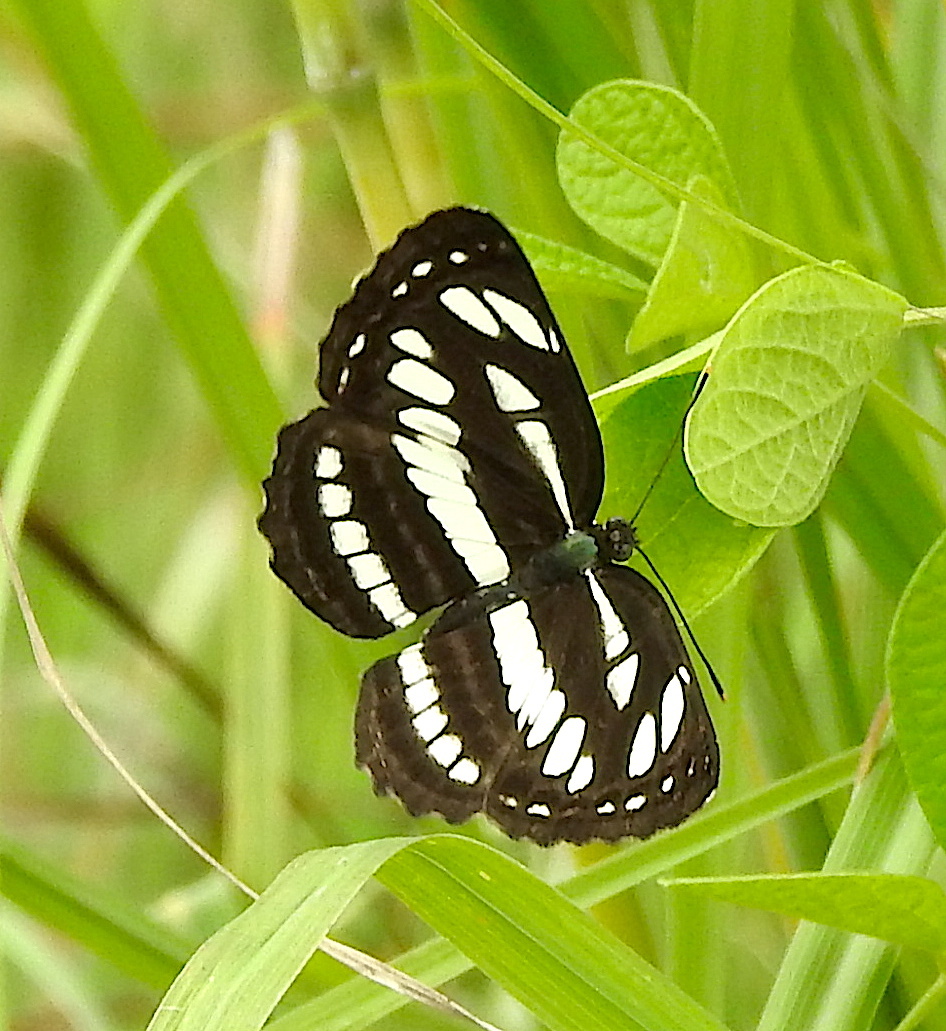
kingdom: Animalia
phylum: Arthropoda
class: Insecta
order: Lepidoptera
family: Nymphalidae
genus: Neptis
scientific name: Neptis hylas
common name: Common sailer
